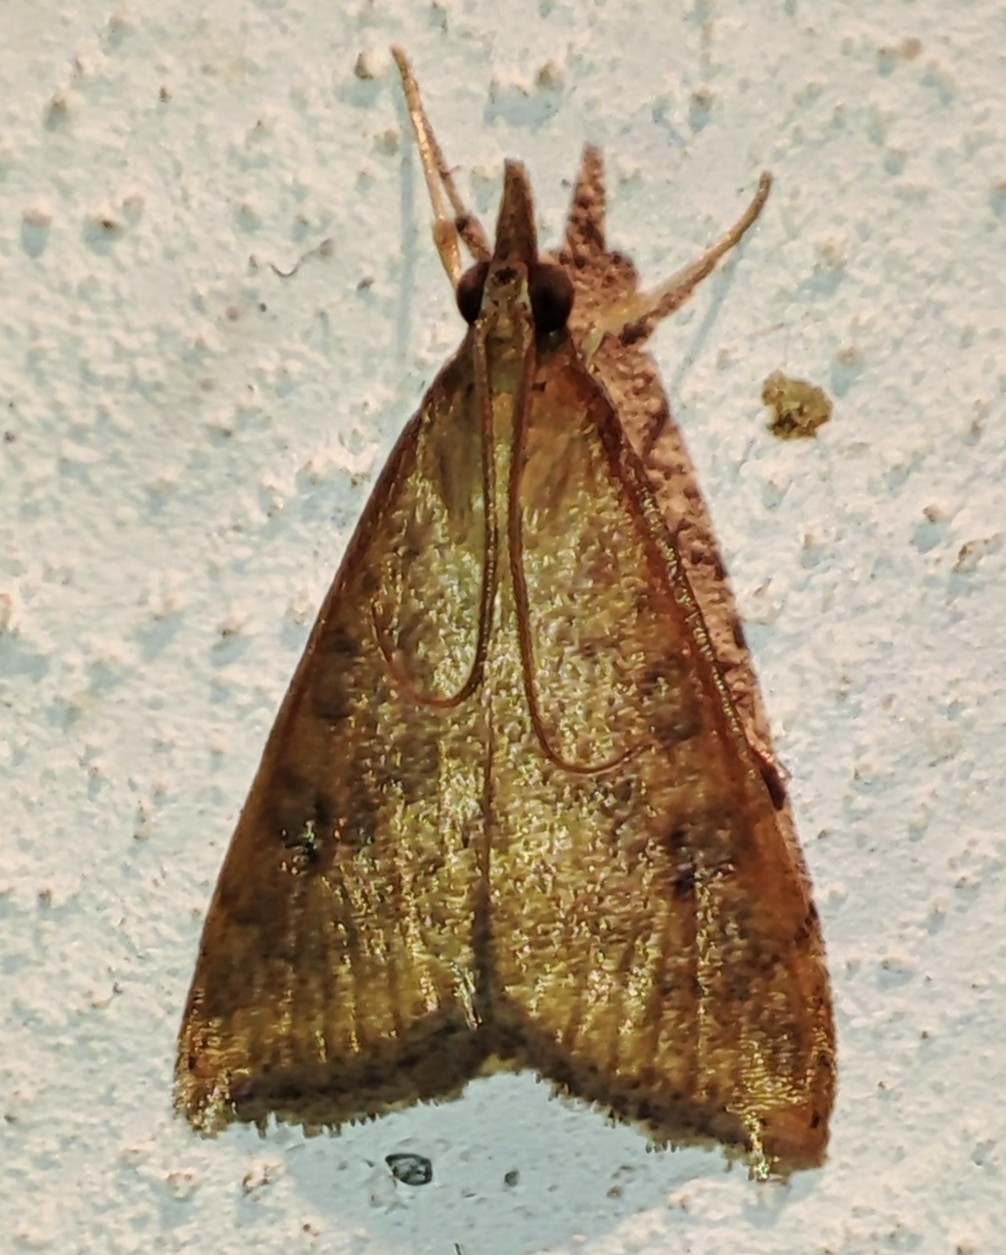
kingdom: Animalia
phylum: Arthropoda
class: Insecta
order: Lepidoptera
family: Crambidae
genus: Udea
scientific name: Udea ferrugalis
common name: Rusty dot
